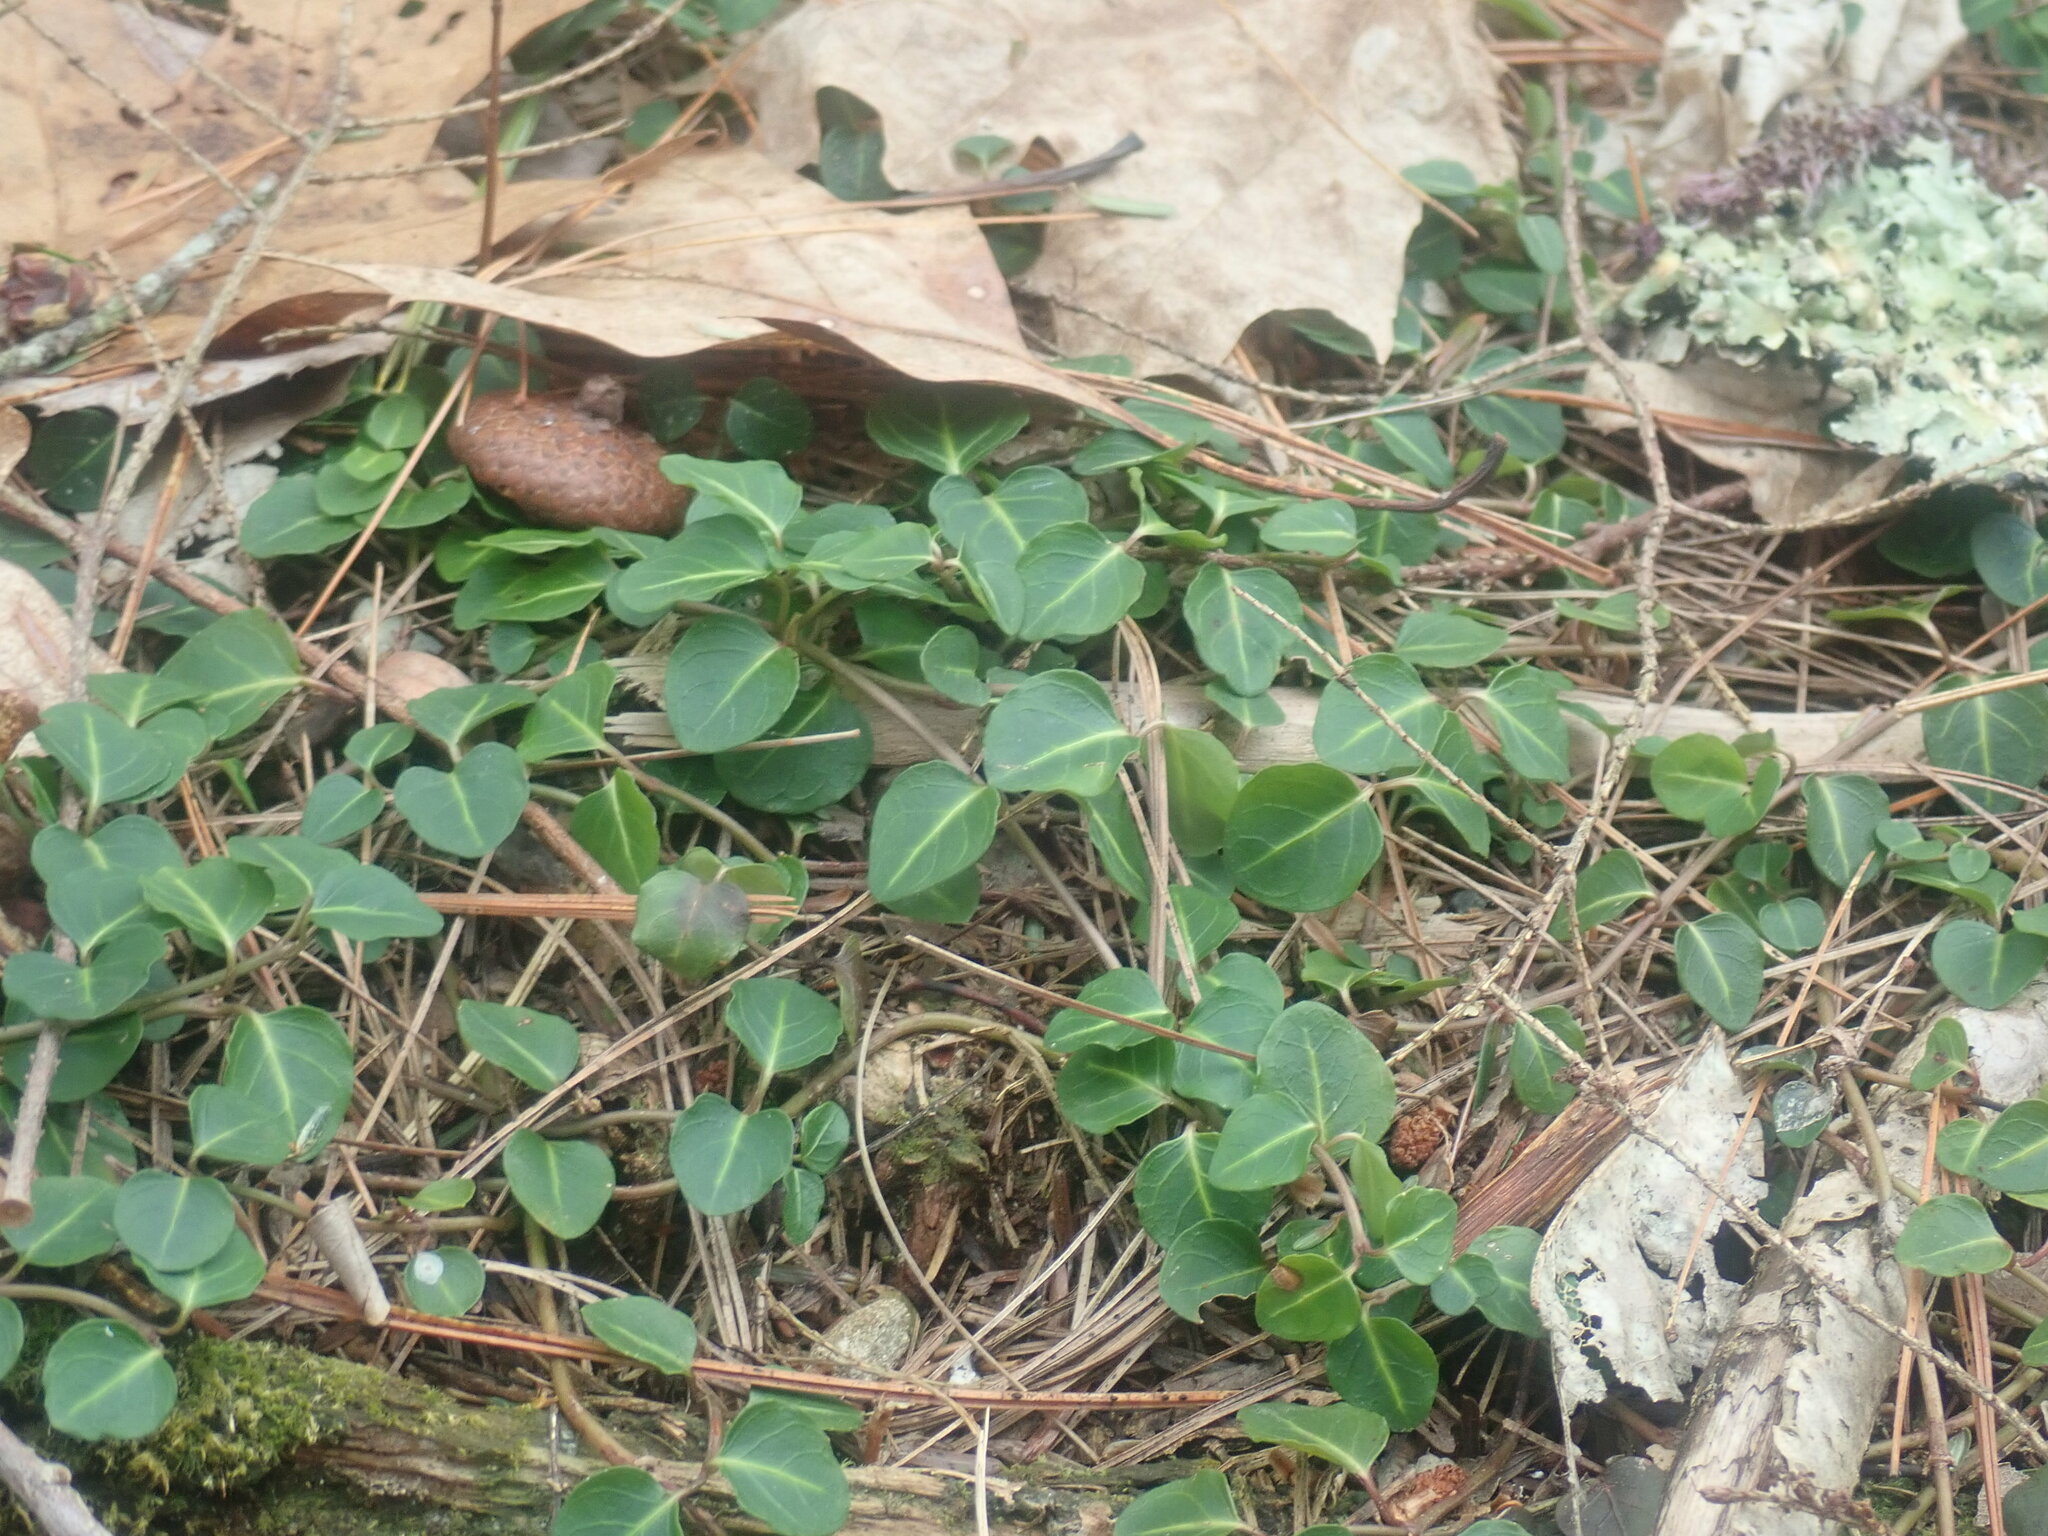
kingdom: Plantae
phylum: Tracheophyta
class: Magnoliopsida
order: Gentianales
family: Rubiaceae
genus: Mitchella
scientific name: Mitchella repens
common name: Partridge-berry
